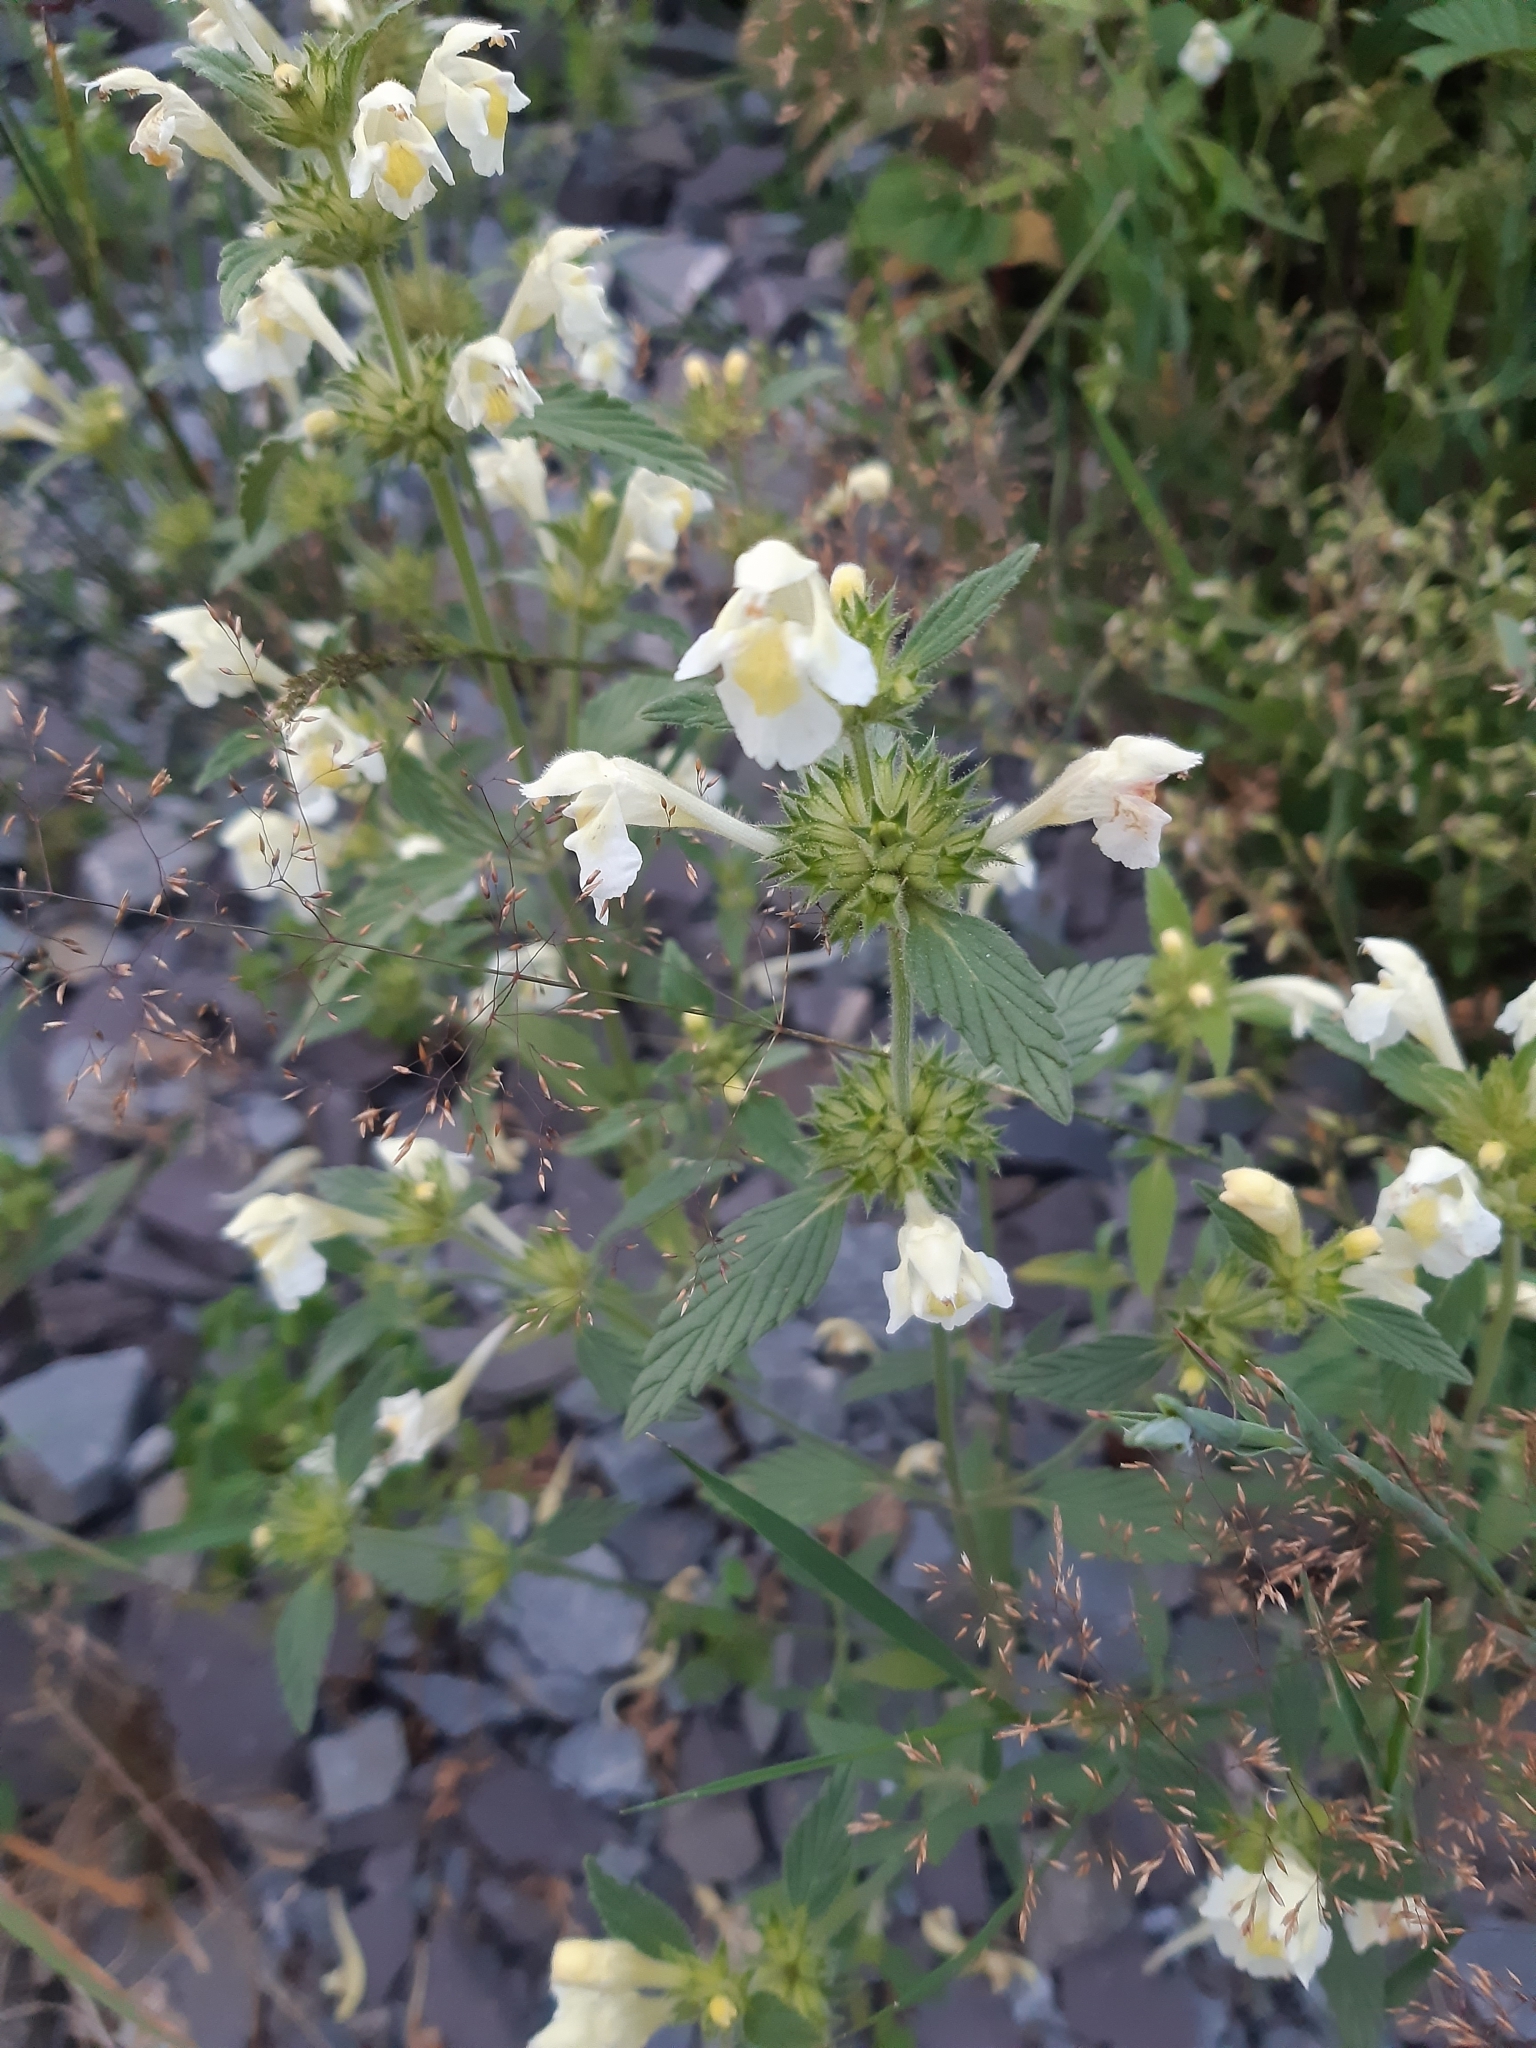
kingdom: Plantae
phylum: Tracheophyta
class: Magnoliopsida
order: Lamiales
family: Lamiaceae
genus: Galeopsis
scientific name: Galeopsis segetum
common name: Downy hemp-nettle
